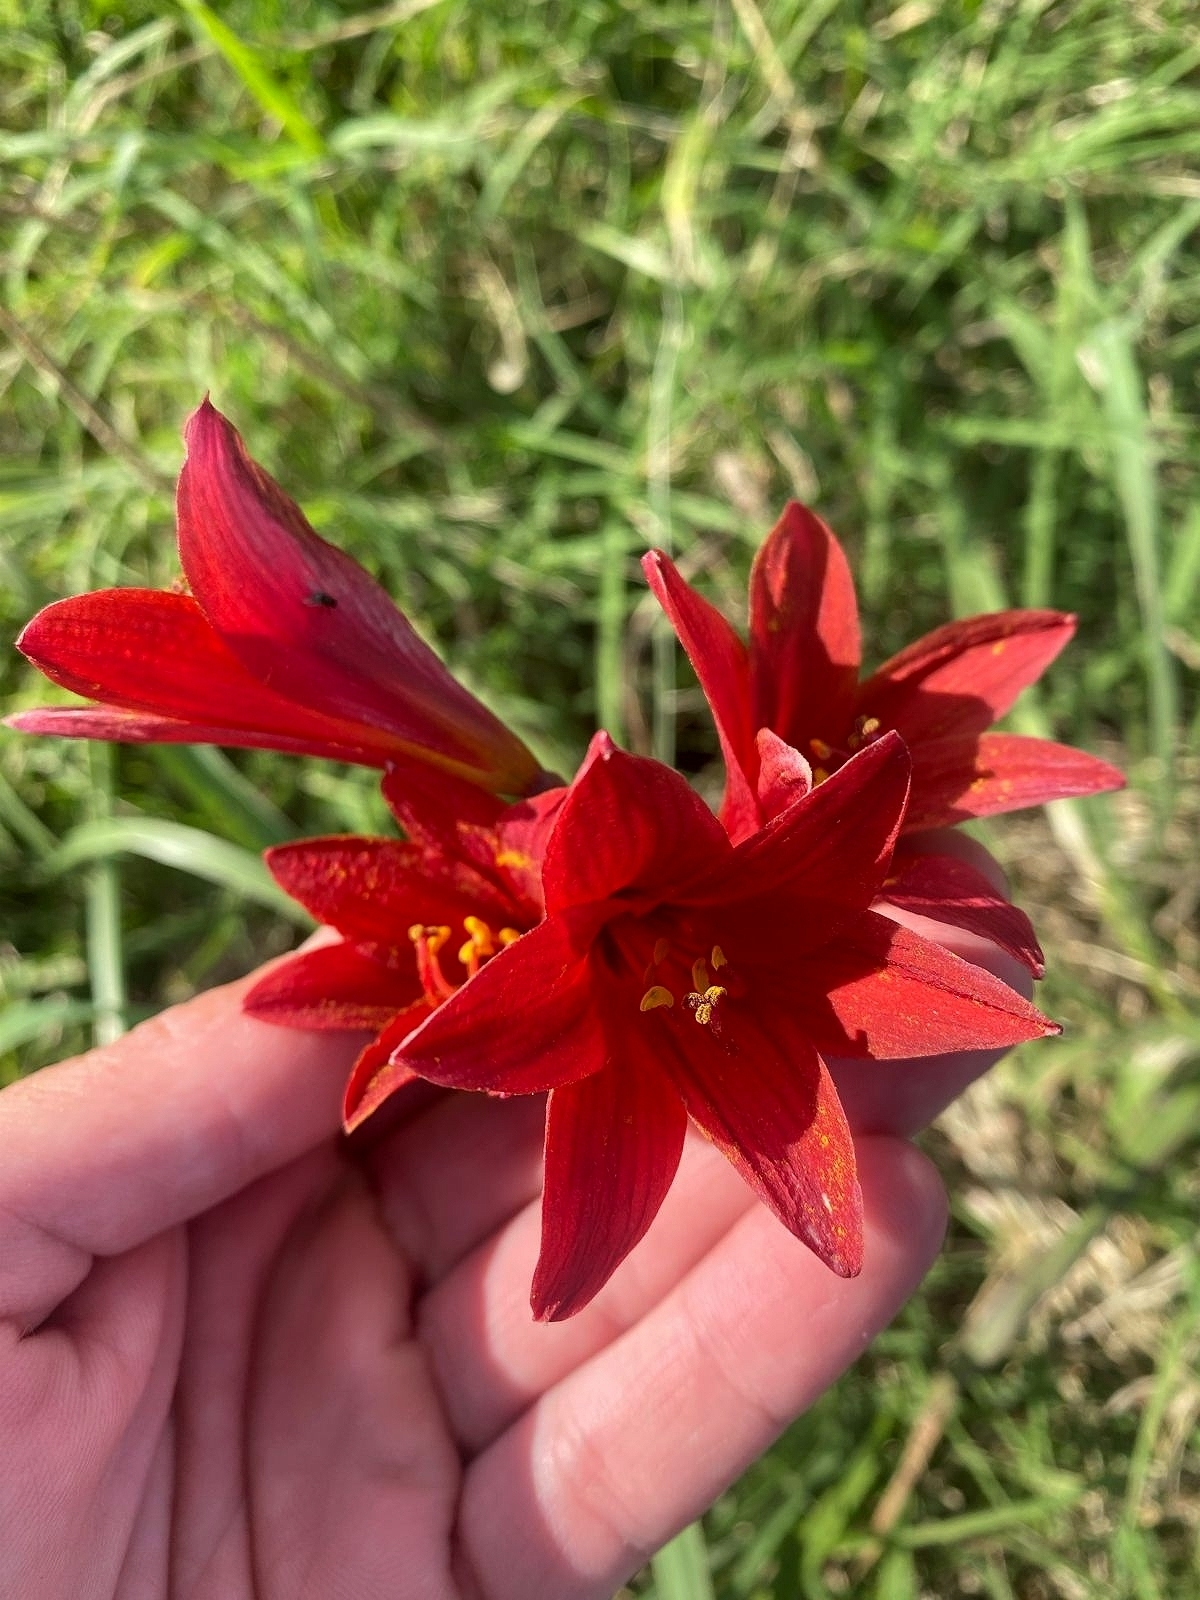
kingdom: Plantae
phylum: Tracheophyta
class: Liliopsida
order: Asparagales
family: Amaryllidaceae
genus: Zephyranthes
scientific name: Zephyranthes bifida
